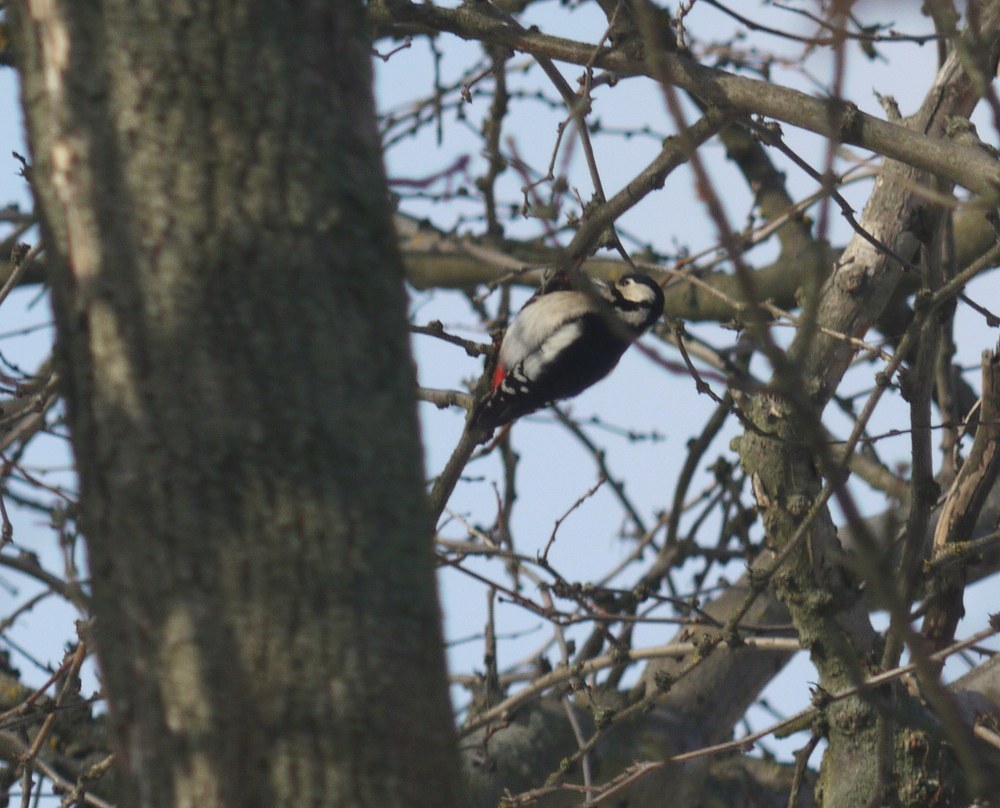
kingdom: Animalia
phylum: Chordata
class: Aves
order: Piciformes
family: Picidae
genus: Dendrocopos
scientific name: Dendrocopos major
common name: Great spotted woodpecker
